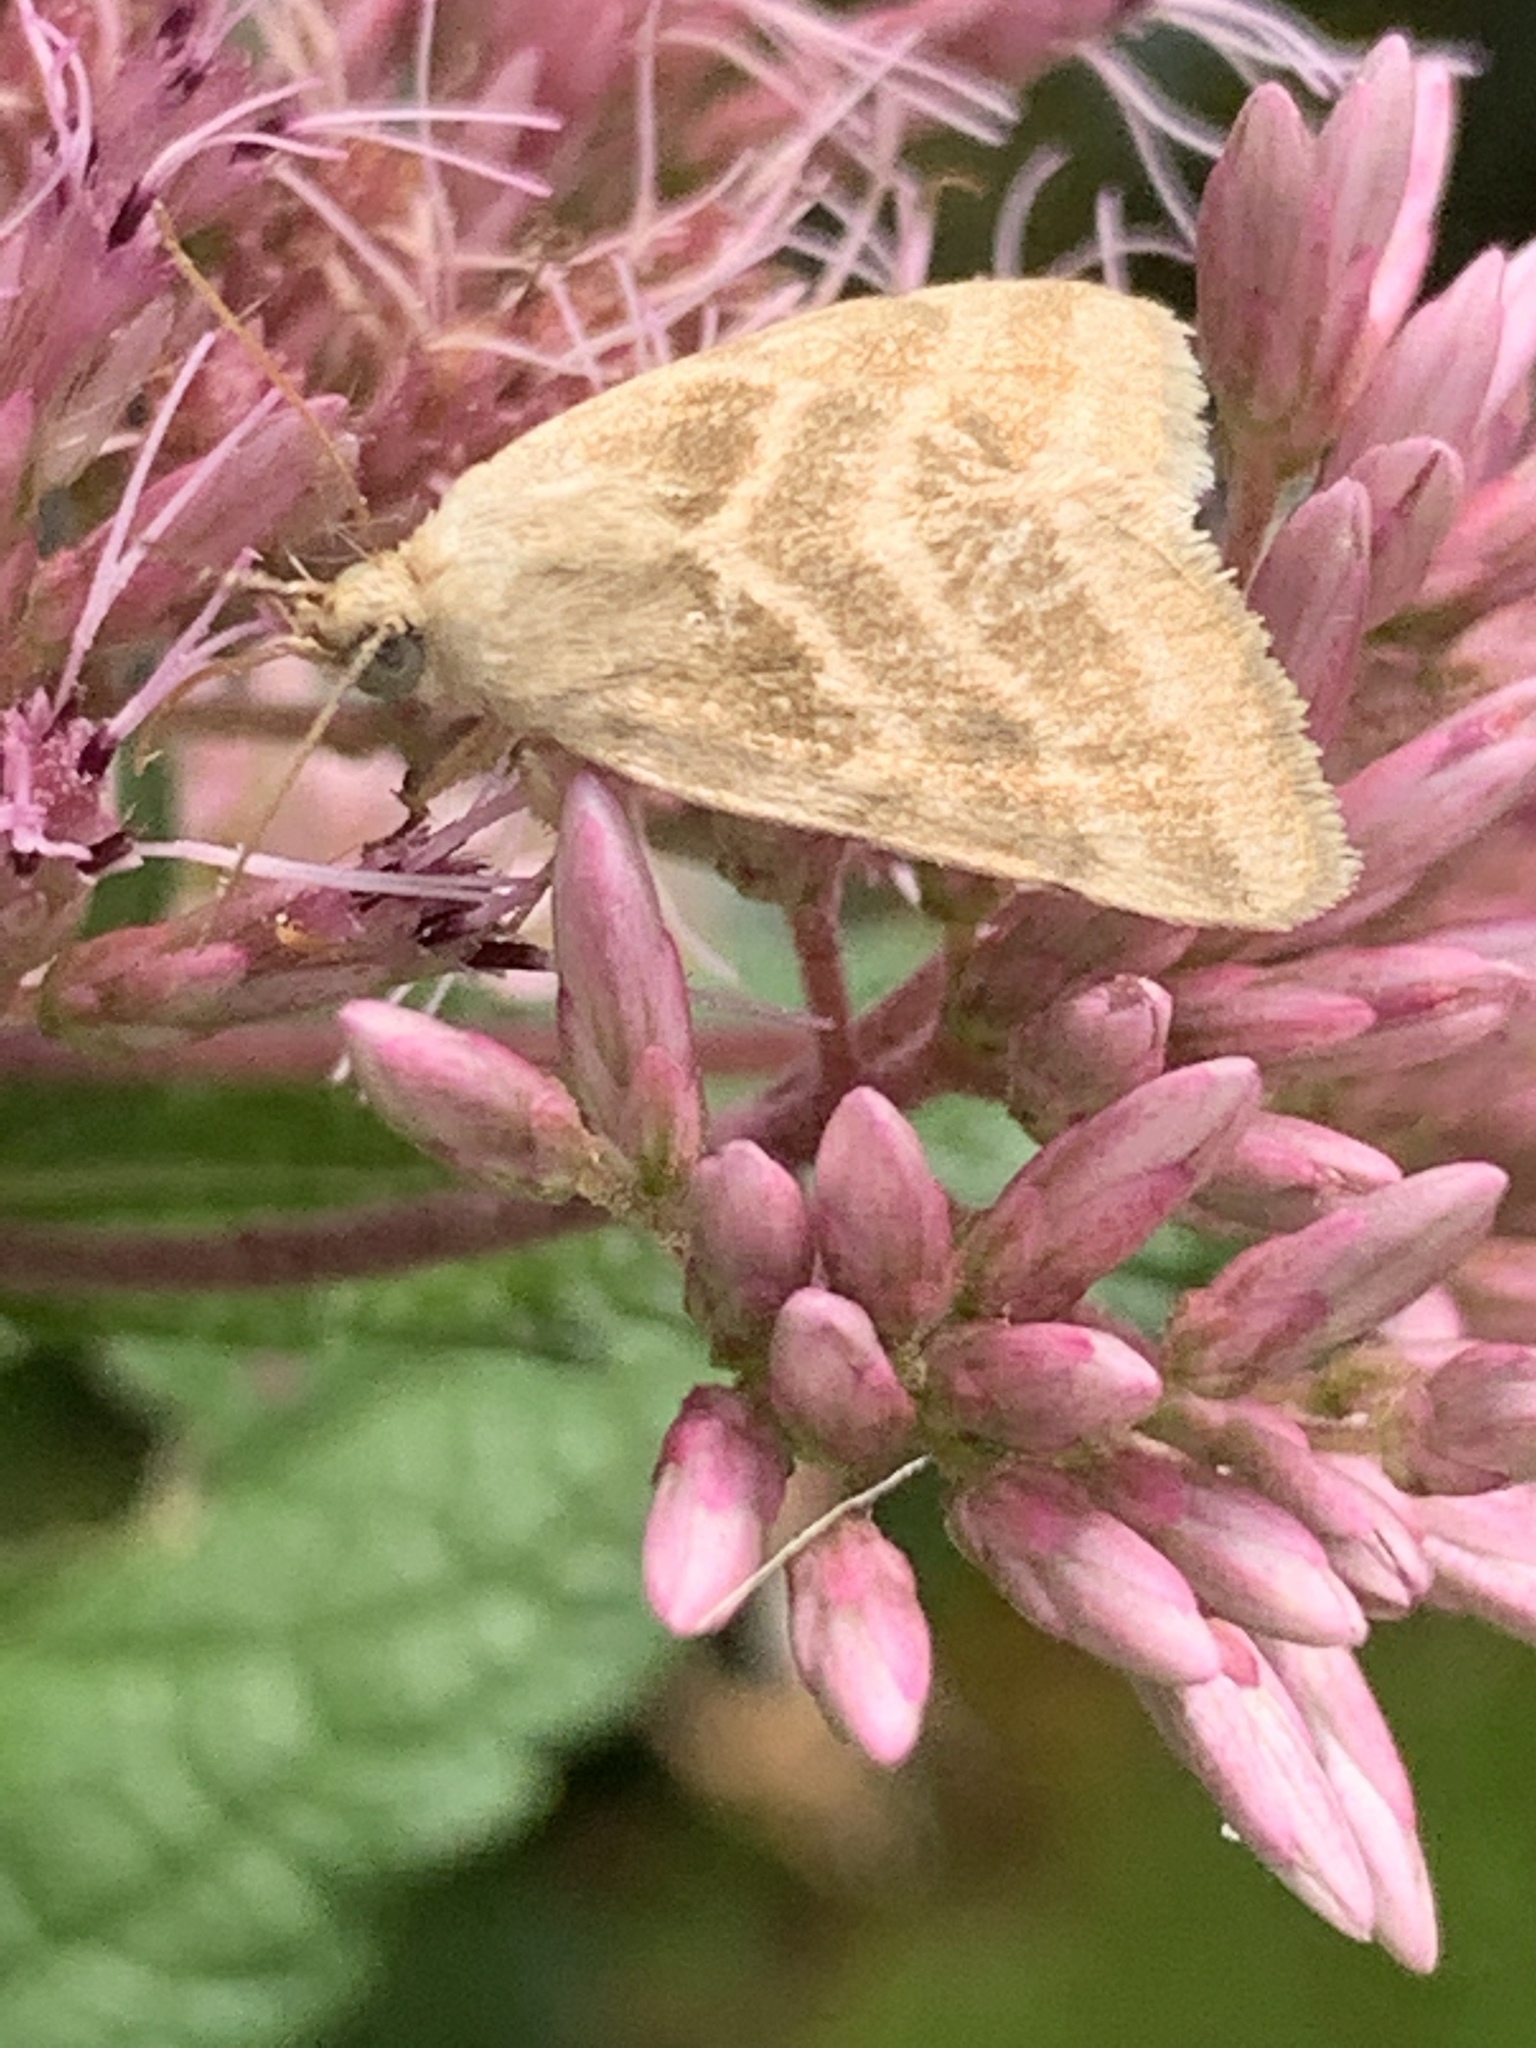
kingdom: Animalia
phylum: Arthropoda
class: Insecta
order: Lepidoptera
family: Noctuidae
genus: Schinia
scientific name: Schinia trifascia
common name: Three-lined flower moth
